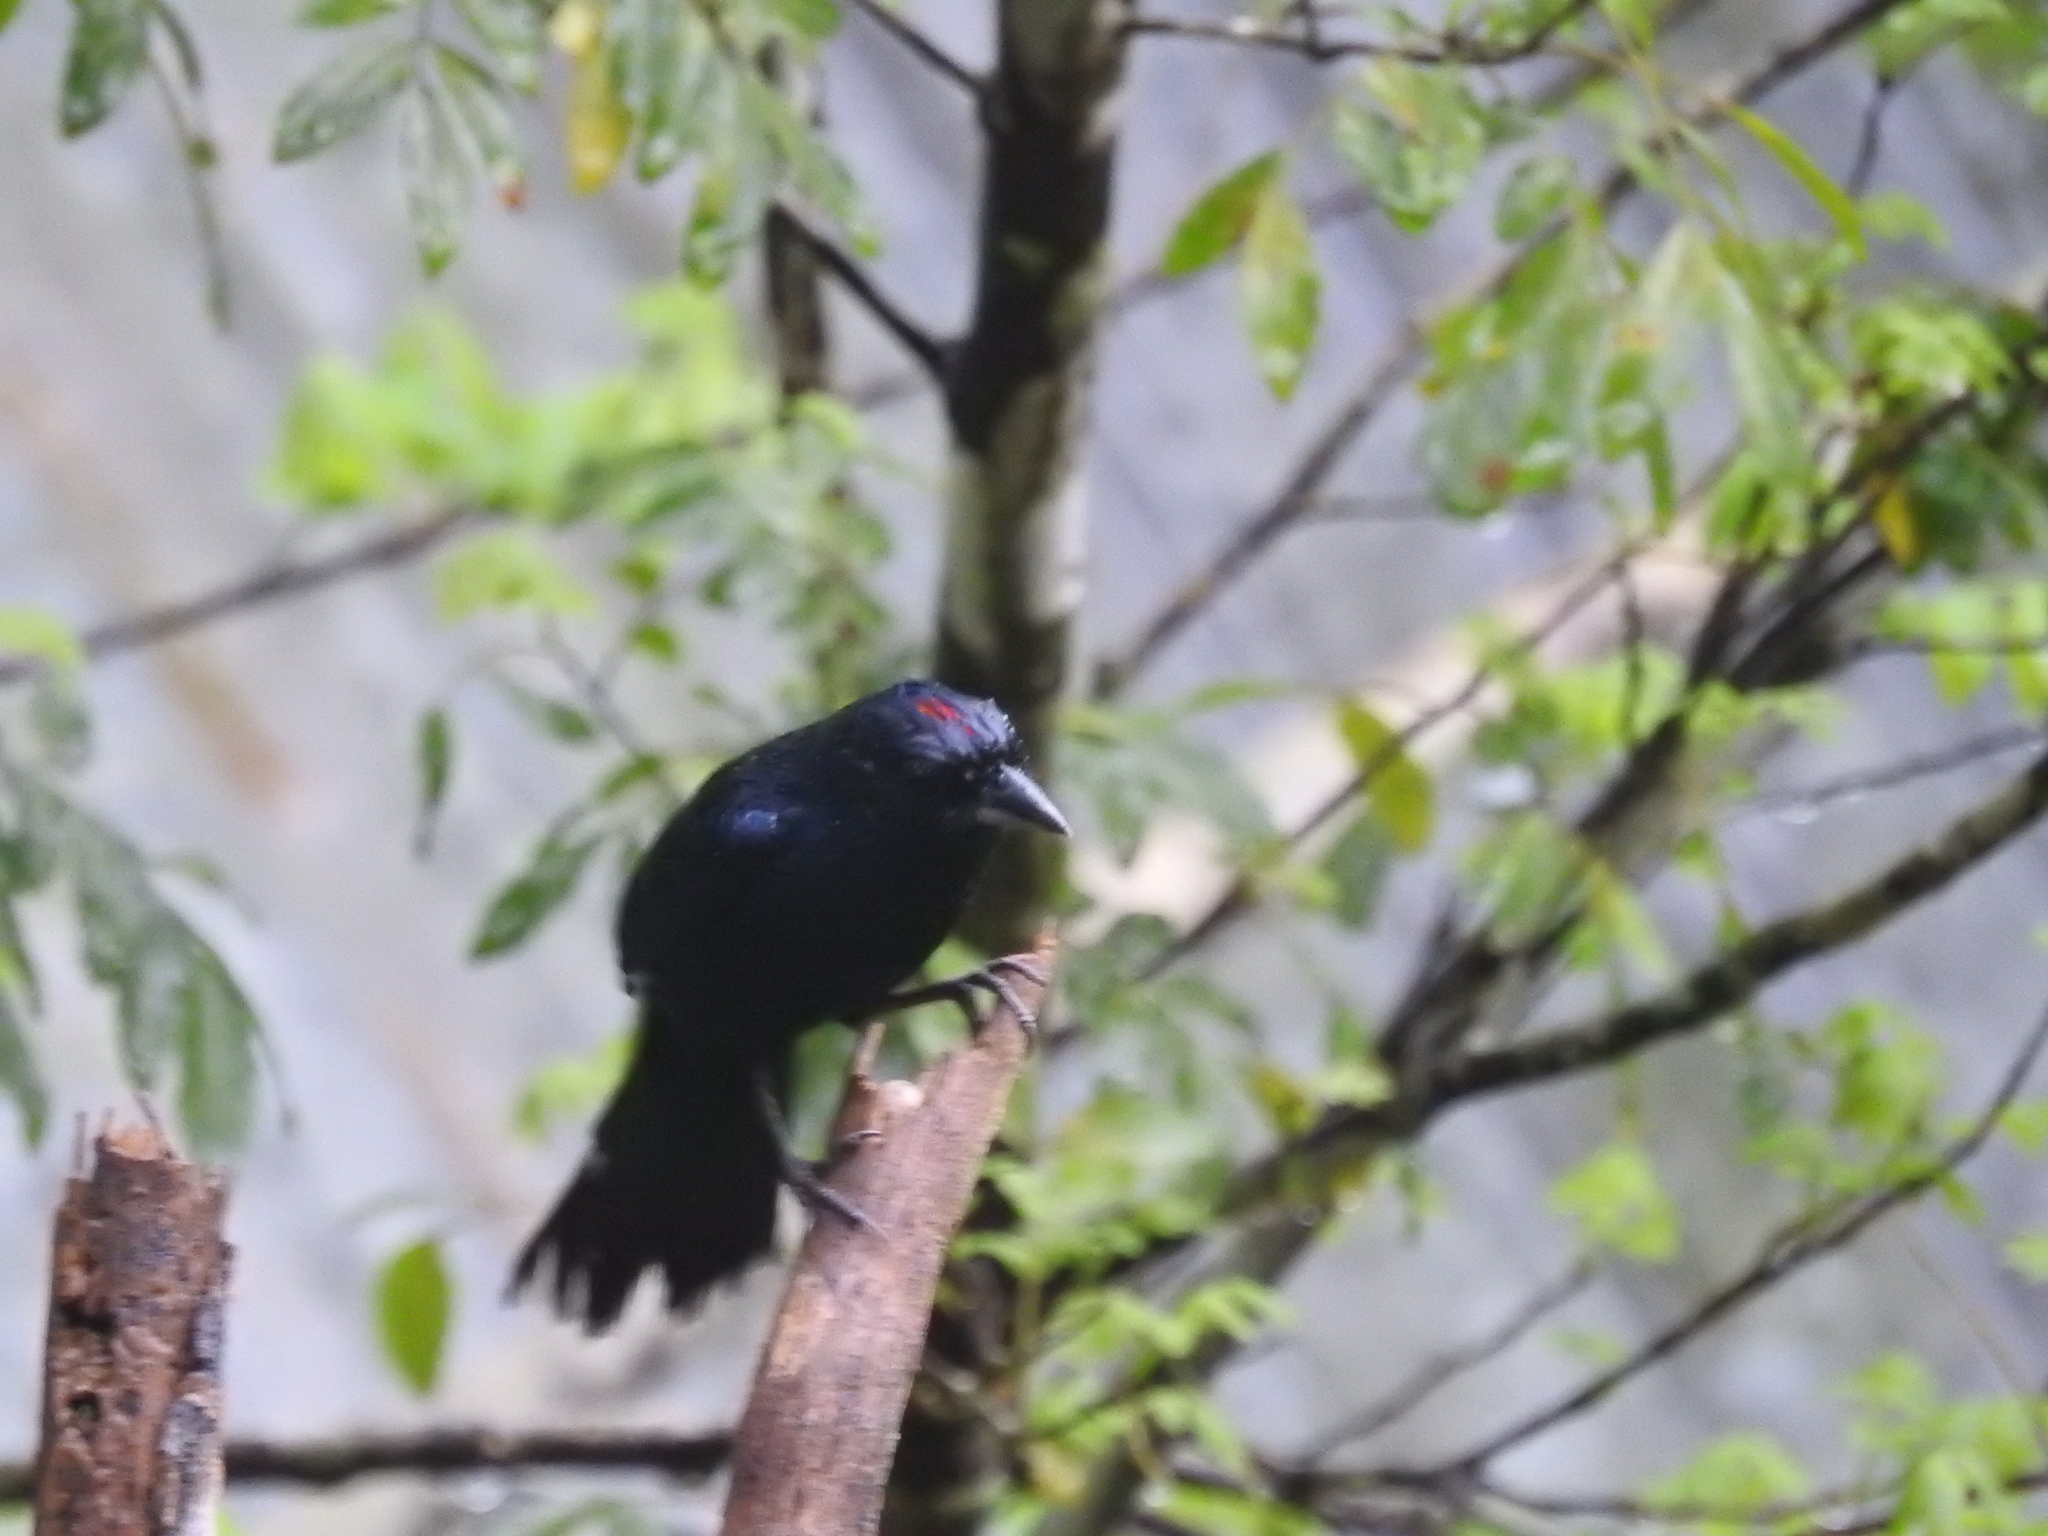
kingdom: Animalia
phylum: Chordata
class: Aves
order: Passeriformes
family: Thraupidae
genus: Tachyphonus
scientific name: Tachyphonus coronatus
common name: Ruby-crowned tanager
